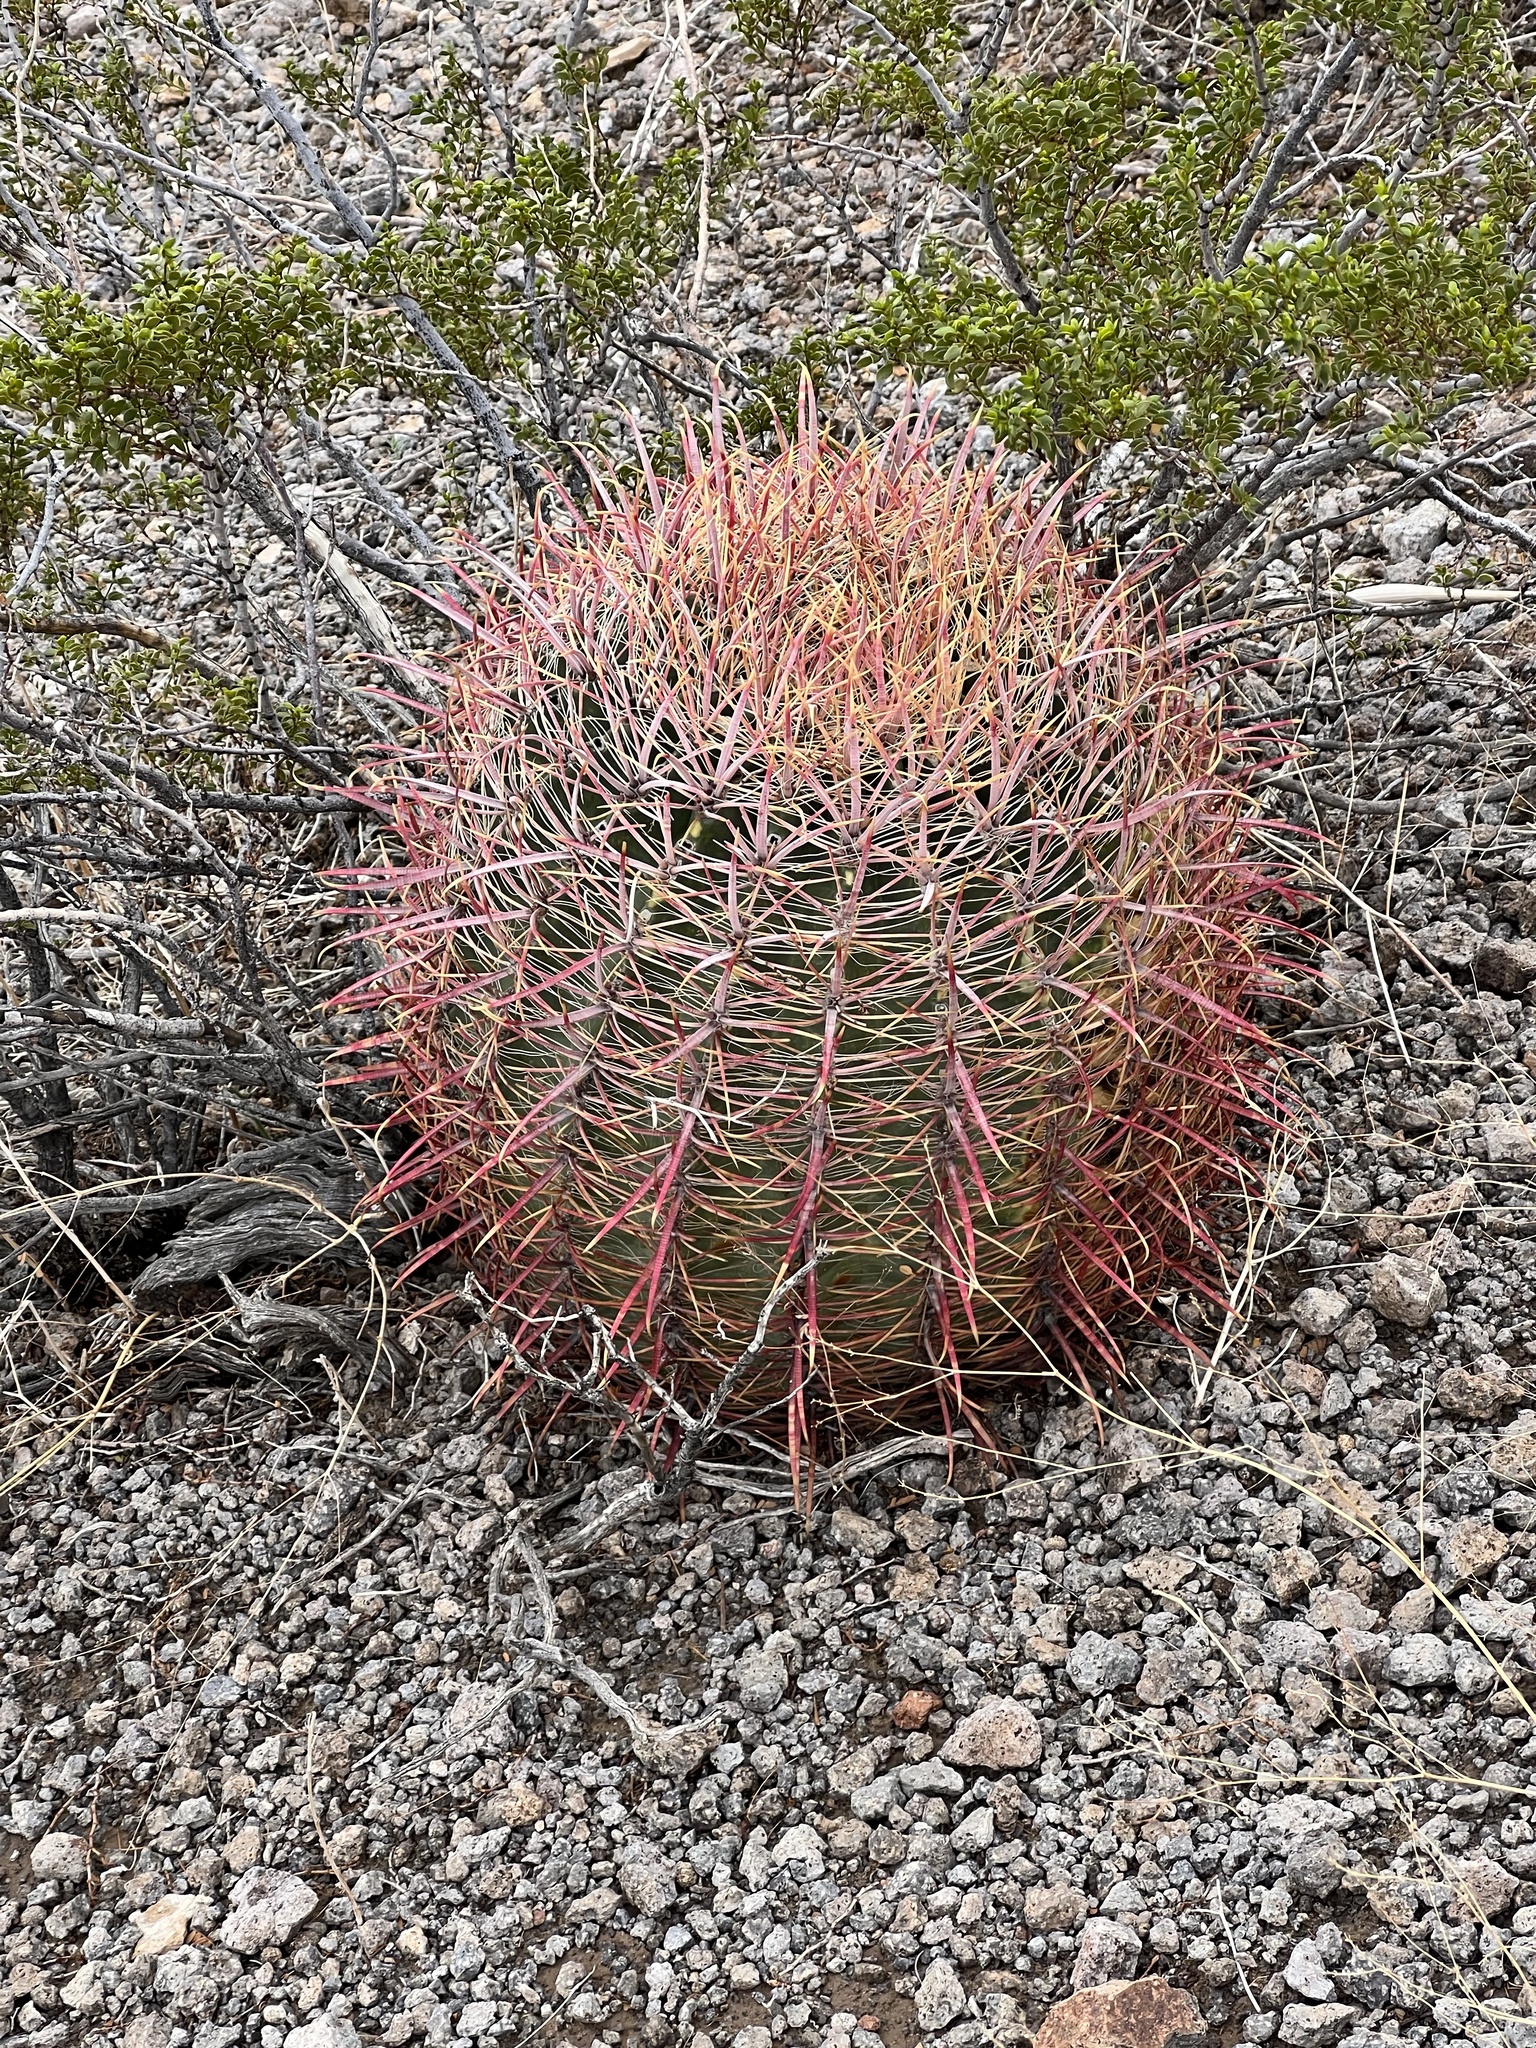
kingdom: Plantae
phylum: Tracheophyta
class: Magnoliopsida
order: Caryophyllales
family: Cactaceae
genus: Ferocactus
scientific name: Ferocactus cylindraceus
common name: California barrel cactus
